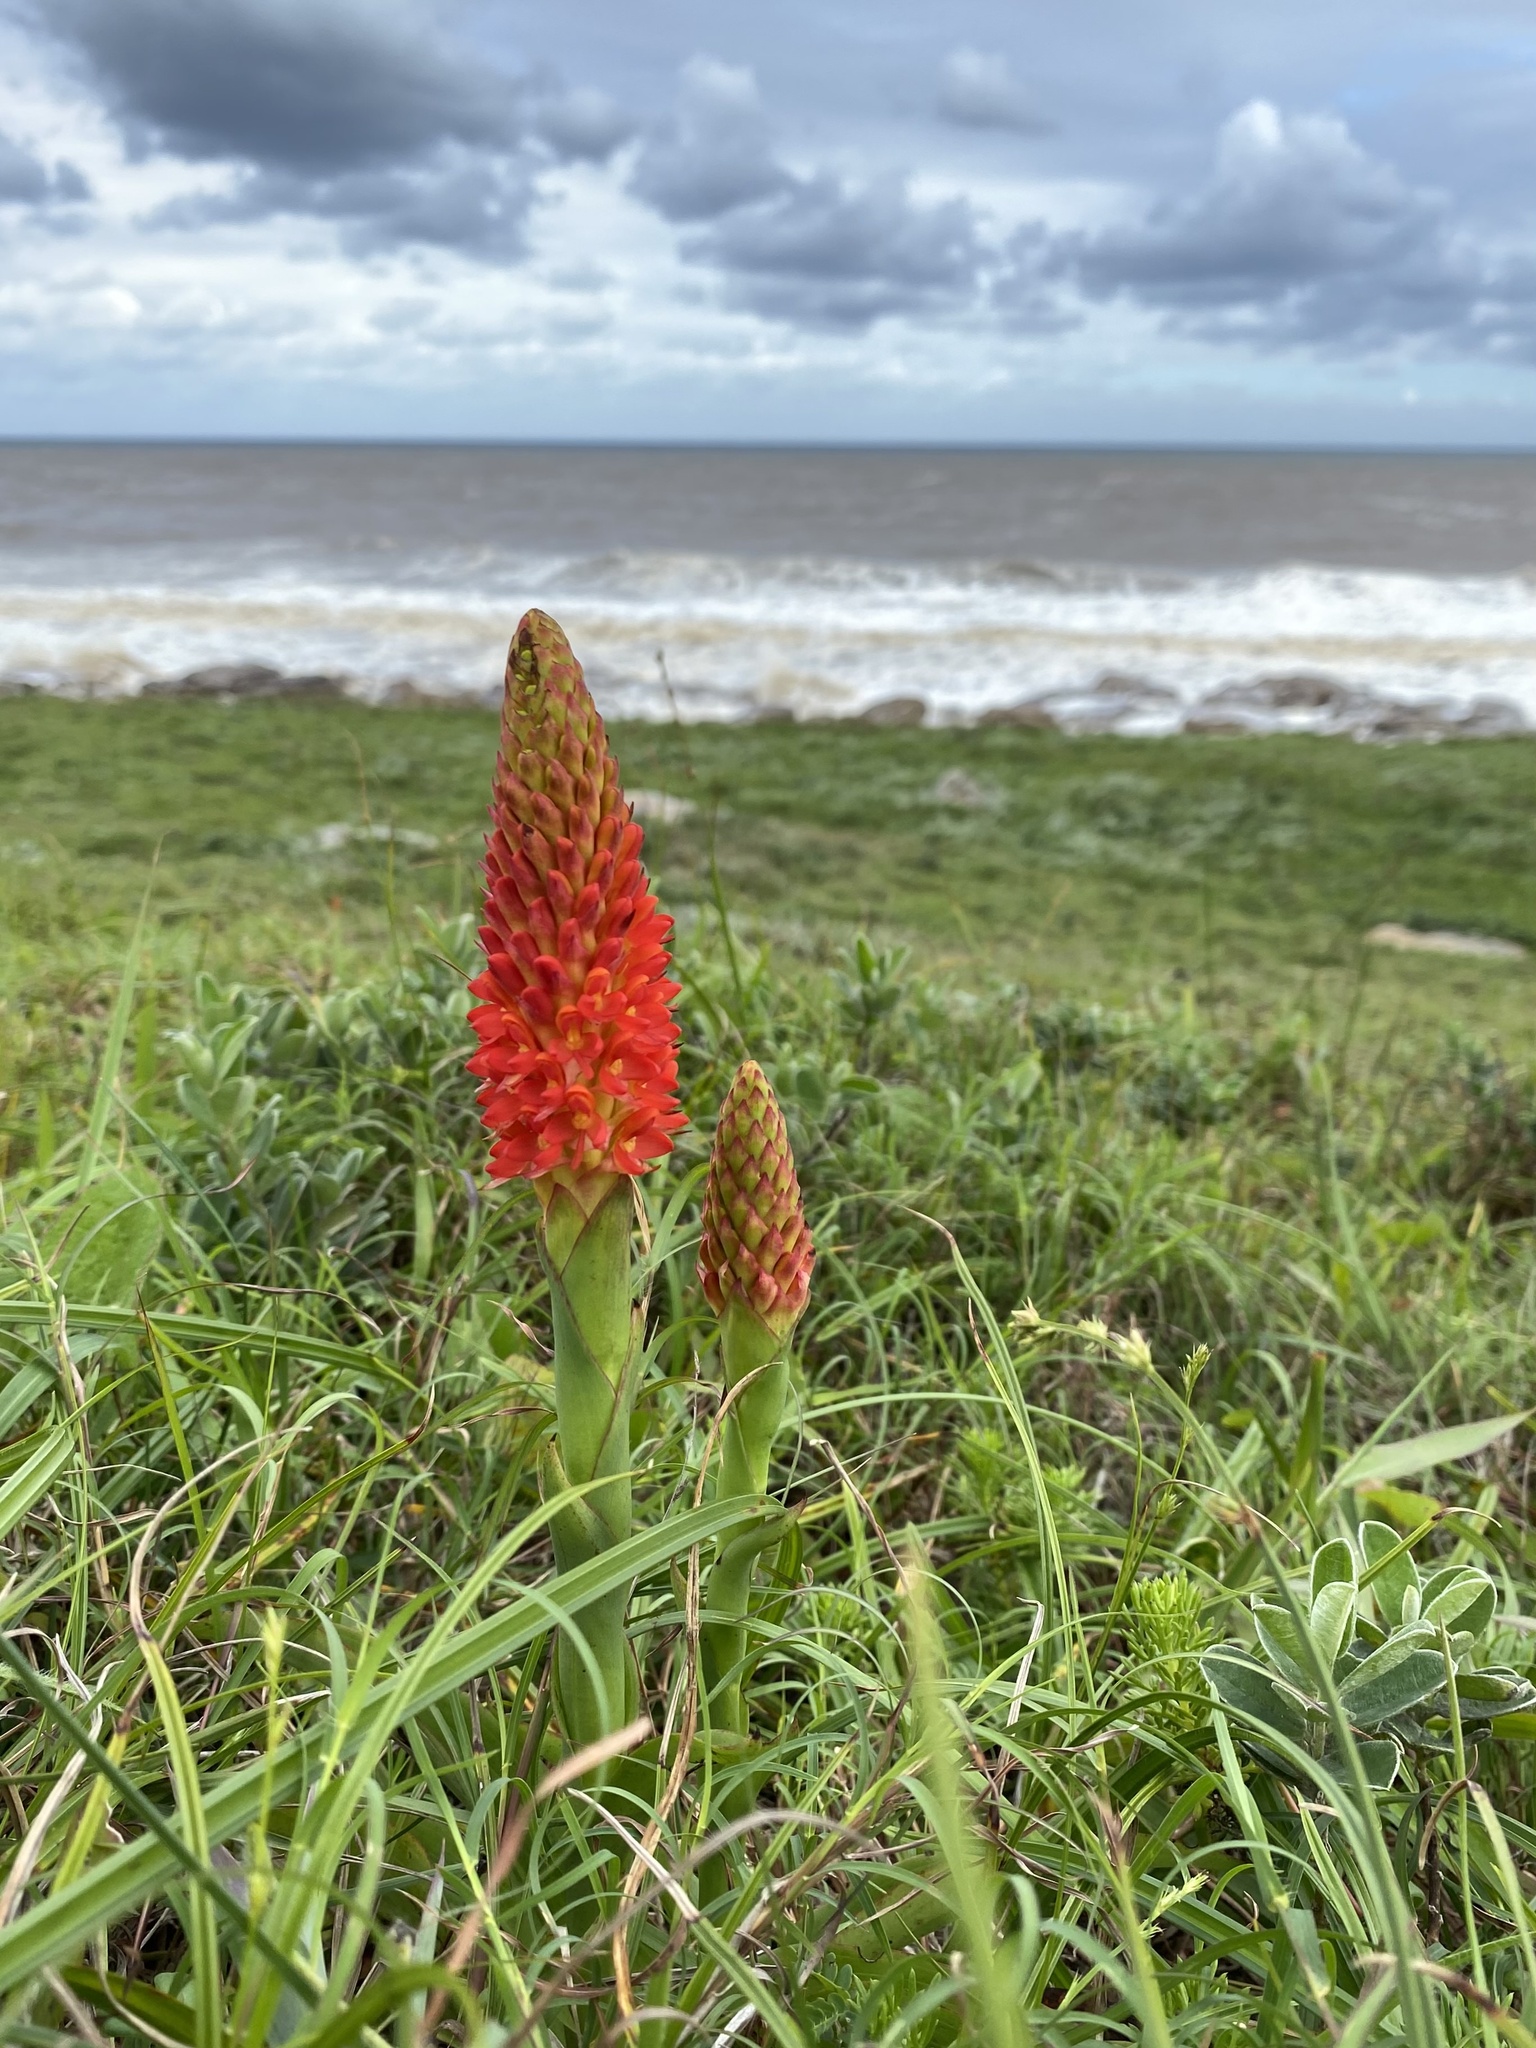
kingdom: Plantae
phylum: Tracheophyta
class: Liliopsida
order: Asparagales
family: Orchidaceae
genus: Disa
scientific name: Disa polygonoides
